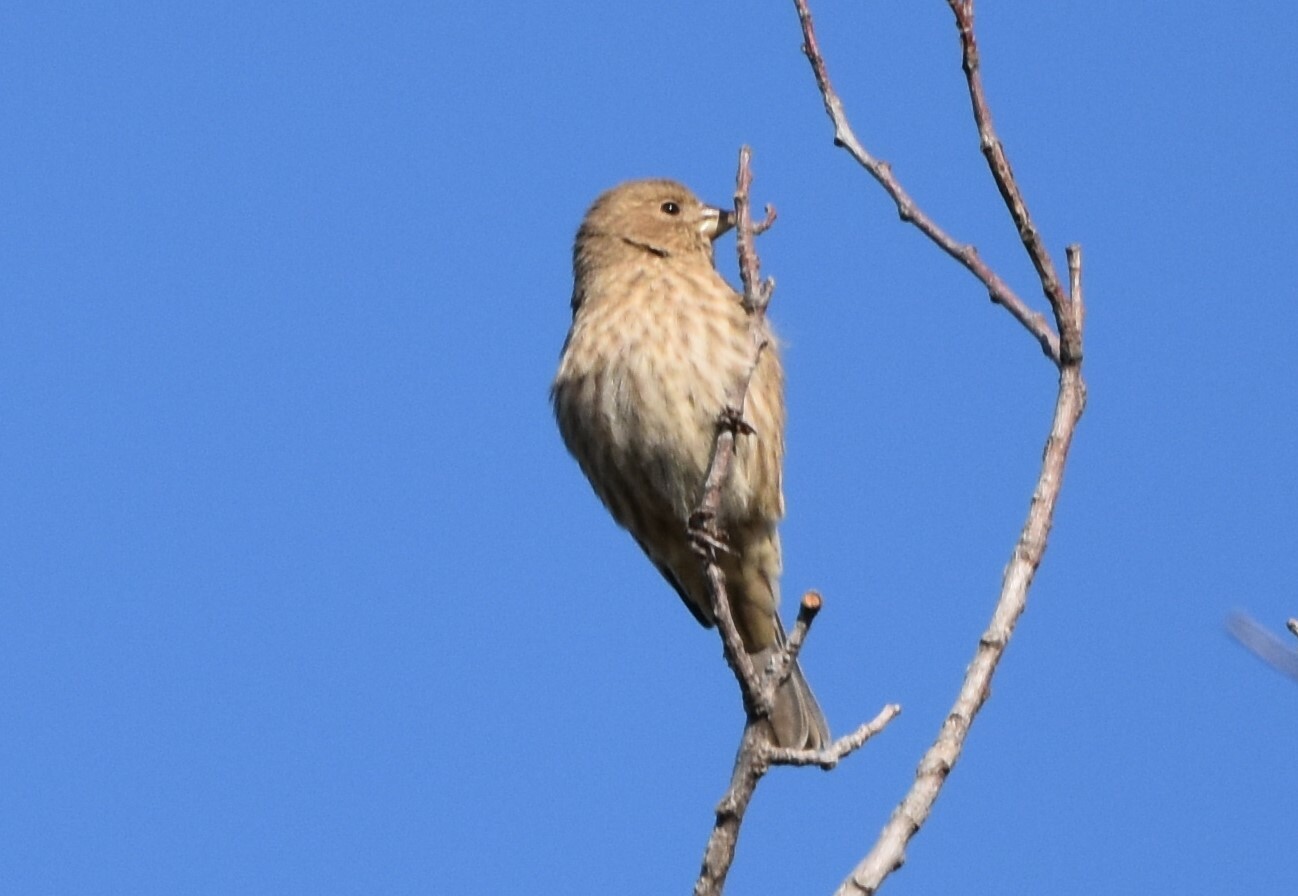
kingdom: Animalia
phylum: Chordata
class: Aves
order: Passeriformes
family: Fringillidae
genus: Haemorhous
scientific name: Haemorhous mexicanus
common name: House finch
